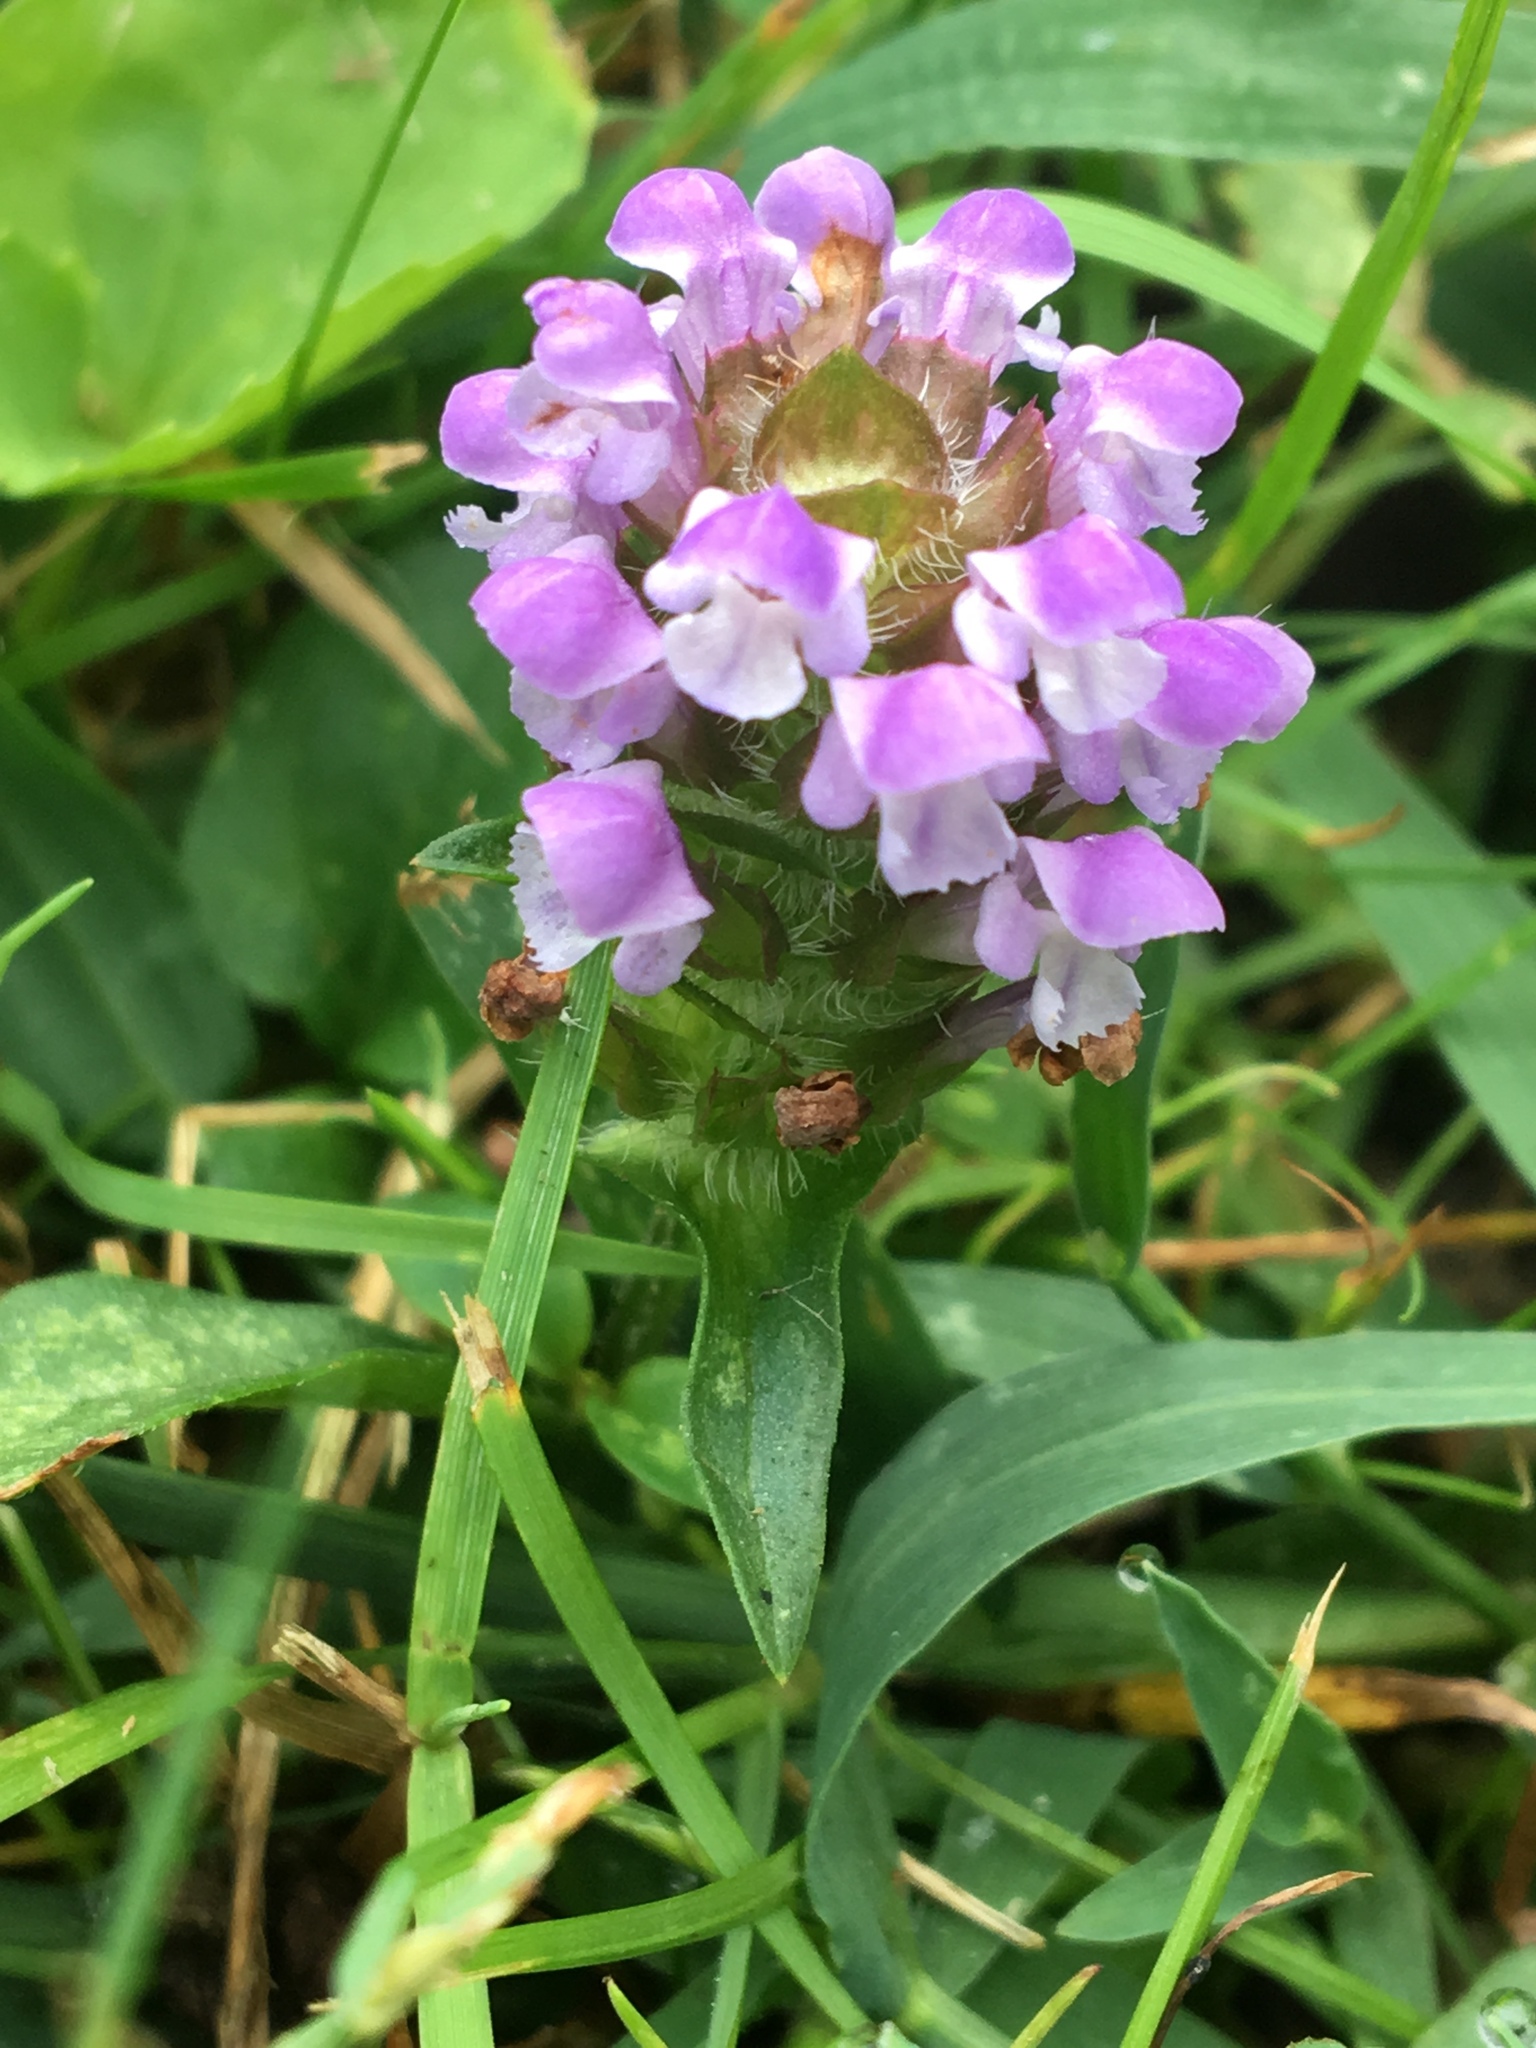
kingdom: Plantae
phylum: Tracheophyta
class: Magnoliopsida
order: Lamiales
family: Lamiaceae
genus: Prunella
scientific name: Prunella vulgaris
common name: Heal-all
